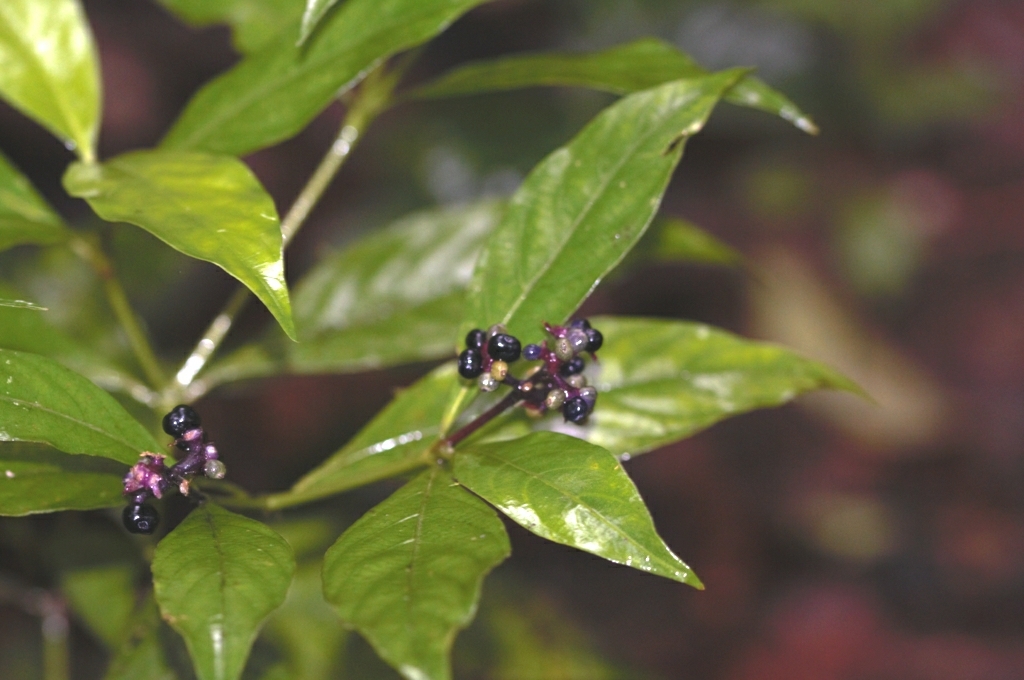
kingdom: Plantae
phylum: Tracheophyta
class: Magnoliopsida
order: Gentianales
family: Rubiaceae
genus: Palicourea
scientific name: Palicourea gracilenta
